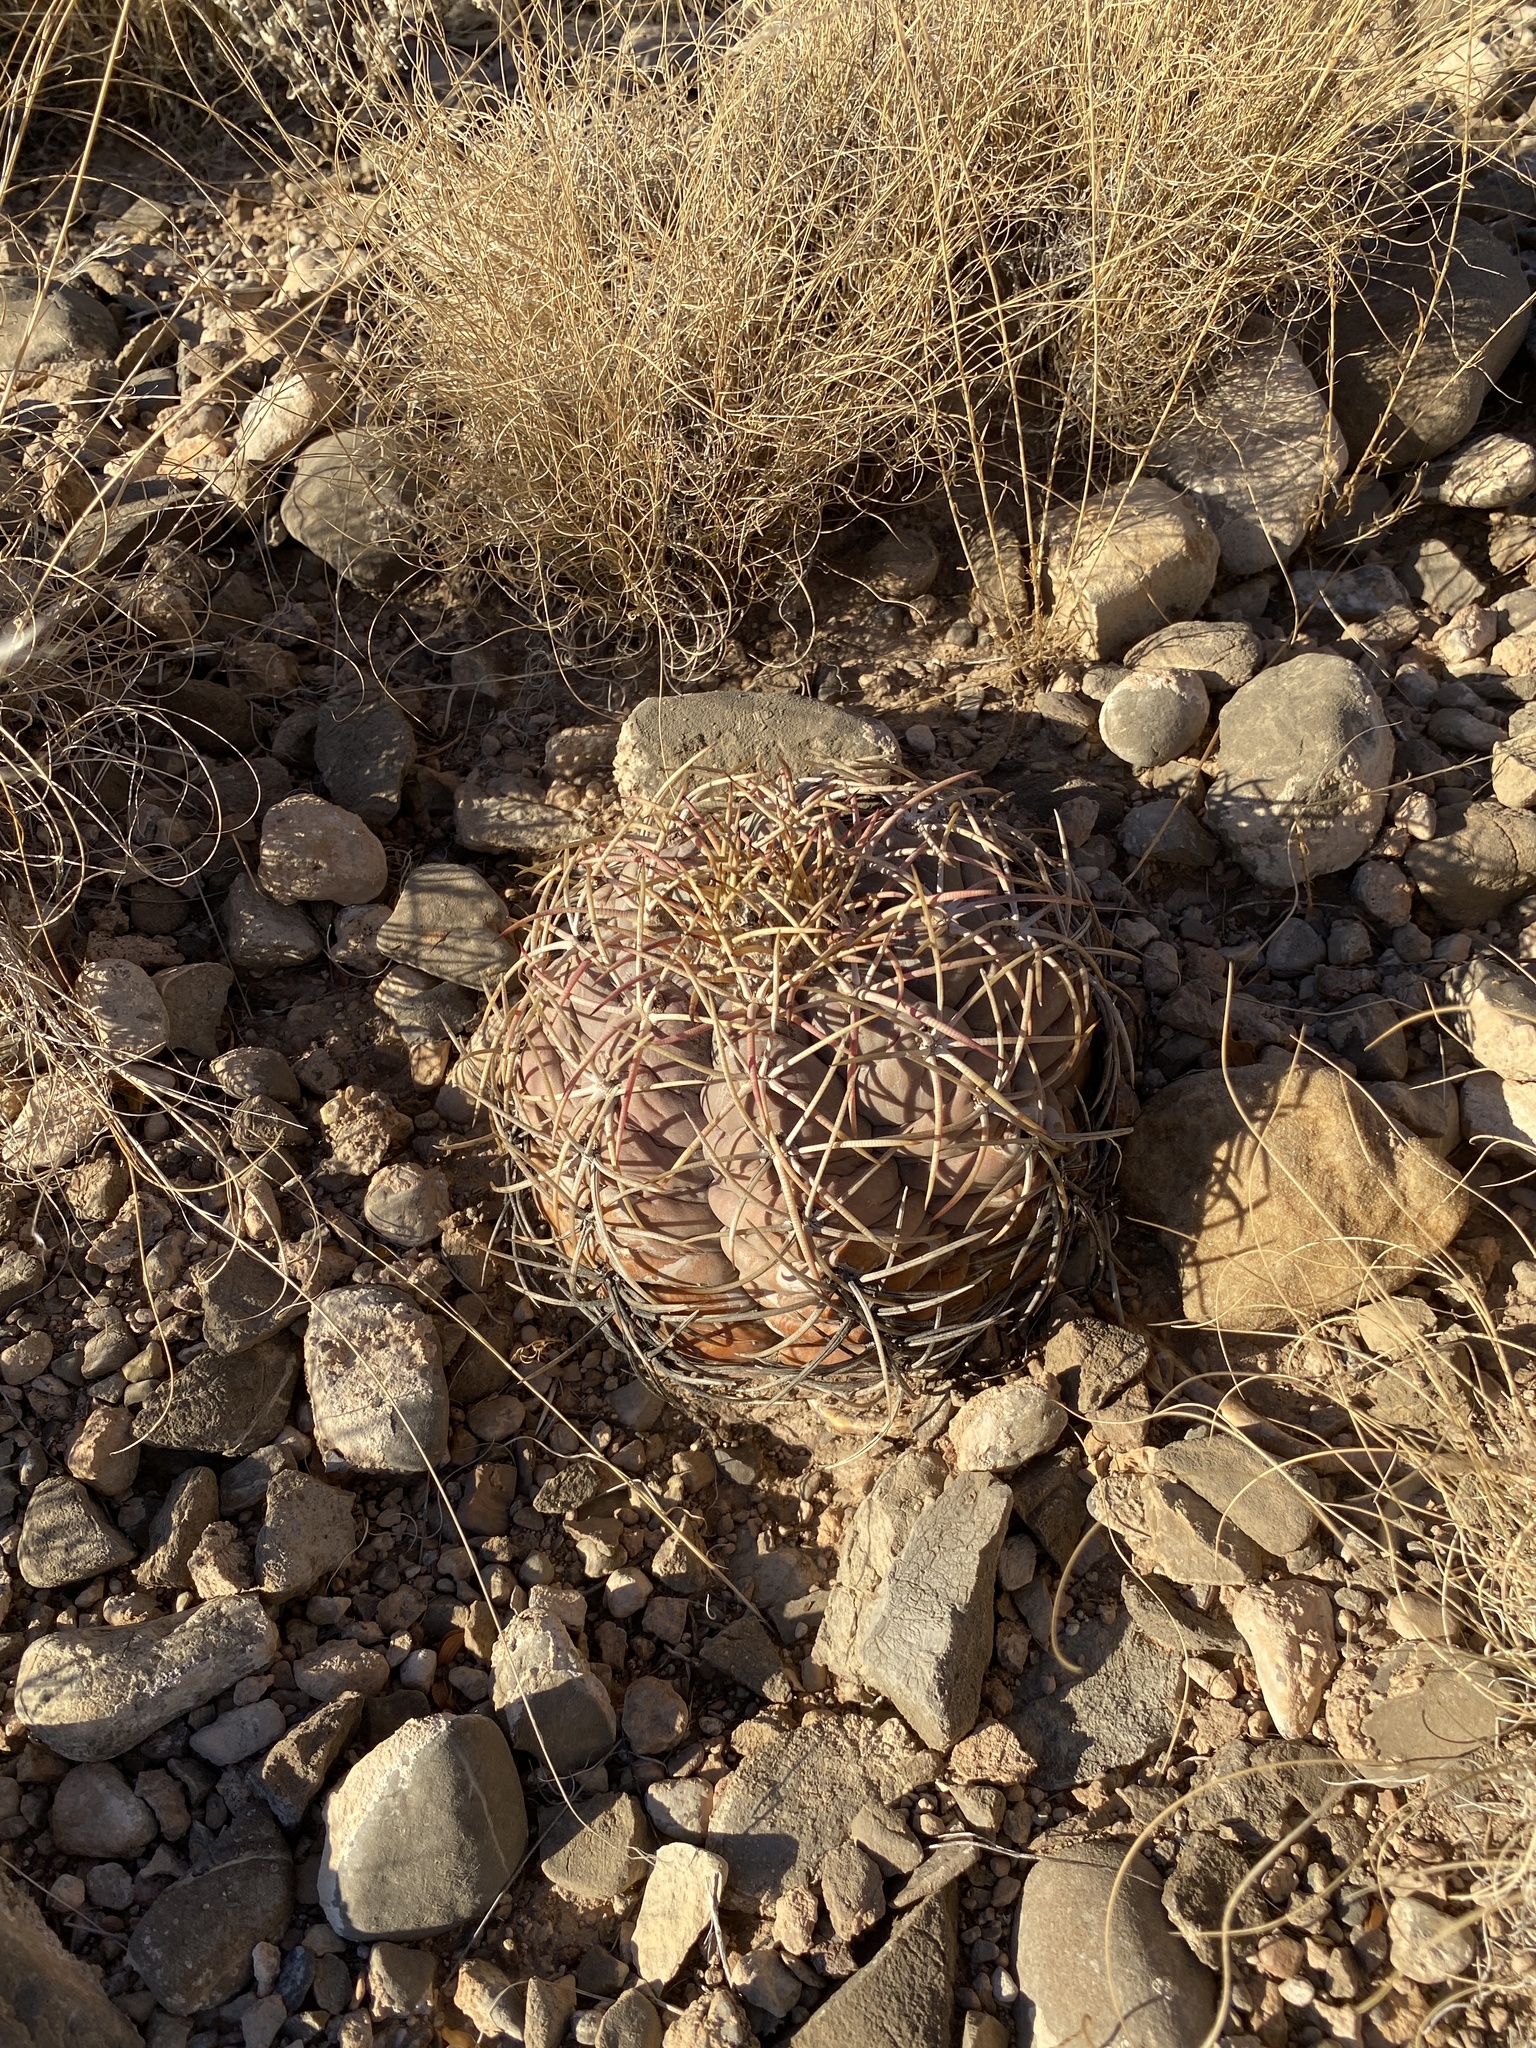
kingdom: Plantae
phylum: Tracheophyta
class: Magnoliopsida
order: Caryophyllales
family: Cactaceae
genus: Echinocactus
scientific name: Echinocactus horizonthalonius
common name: Devilshead
